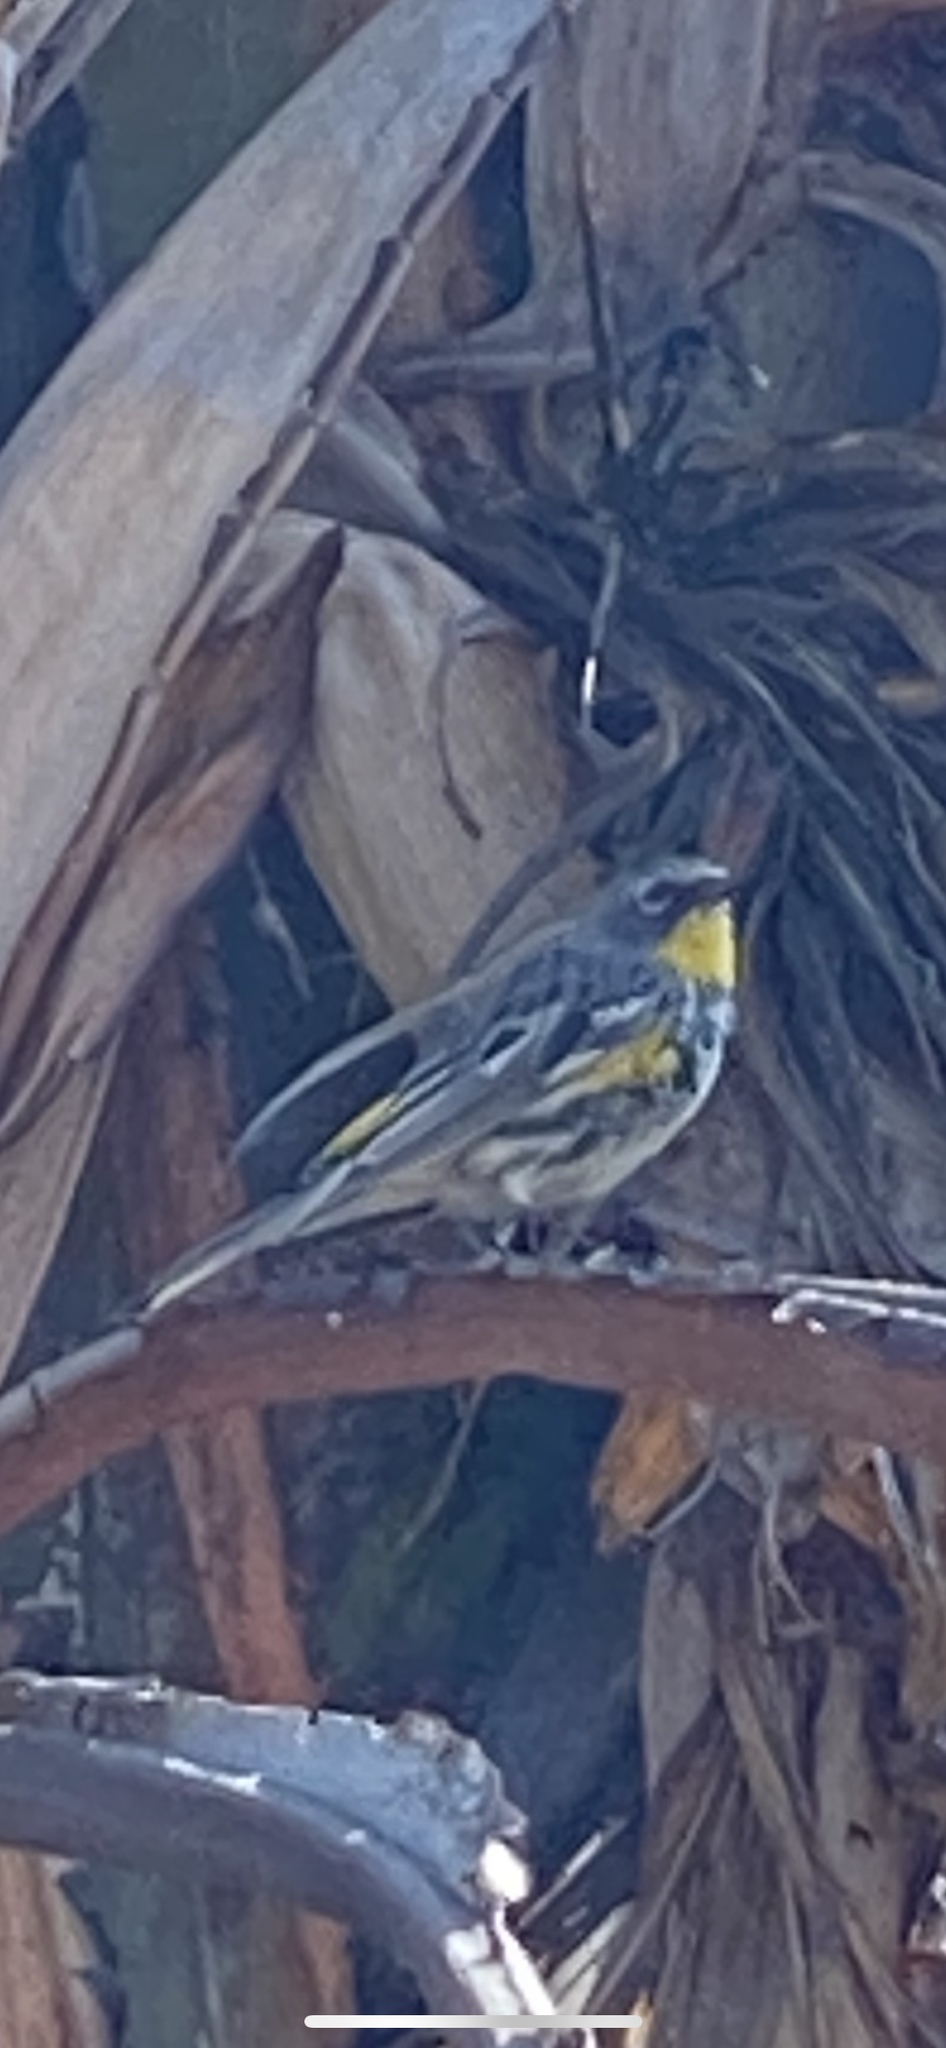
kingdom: Animalia
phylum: Chordata
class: Aves
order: Passeriformes
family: Parulidae
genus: Setophaga
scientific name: Setophaga auduboni
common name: Audubon's warbler
